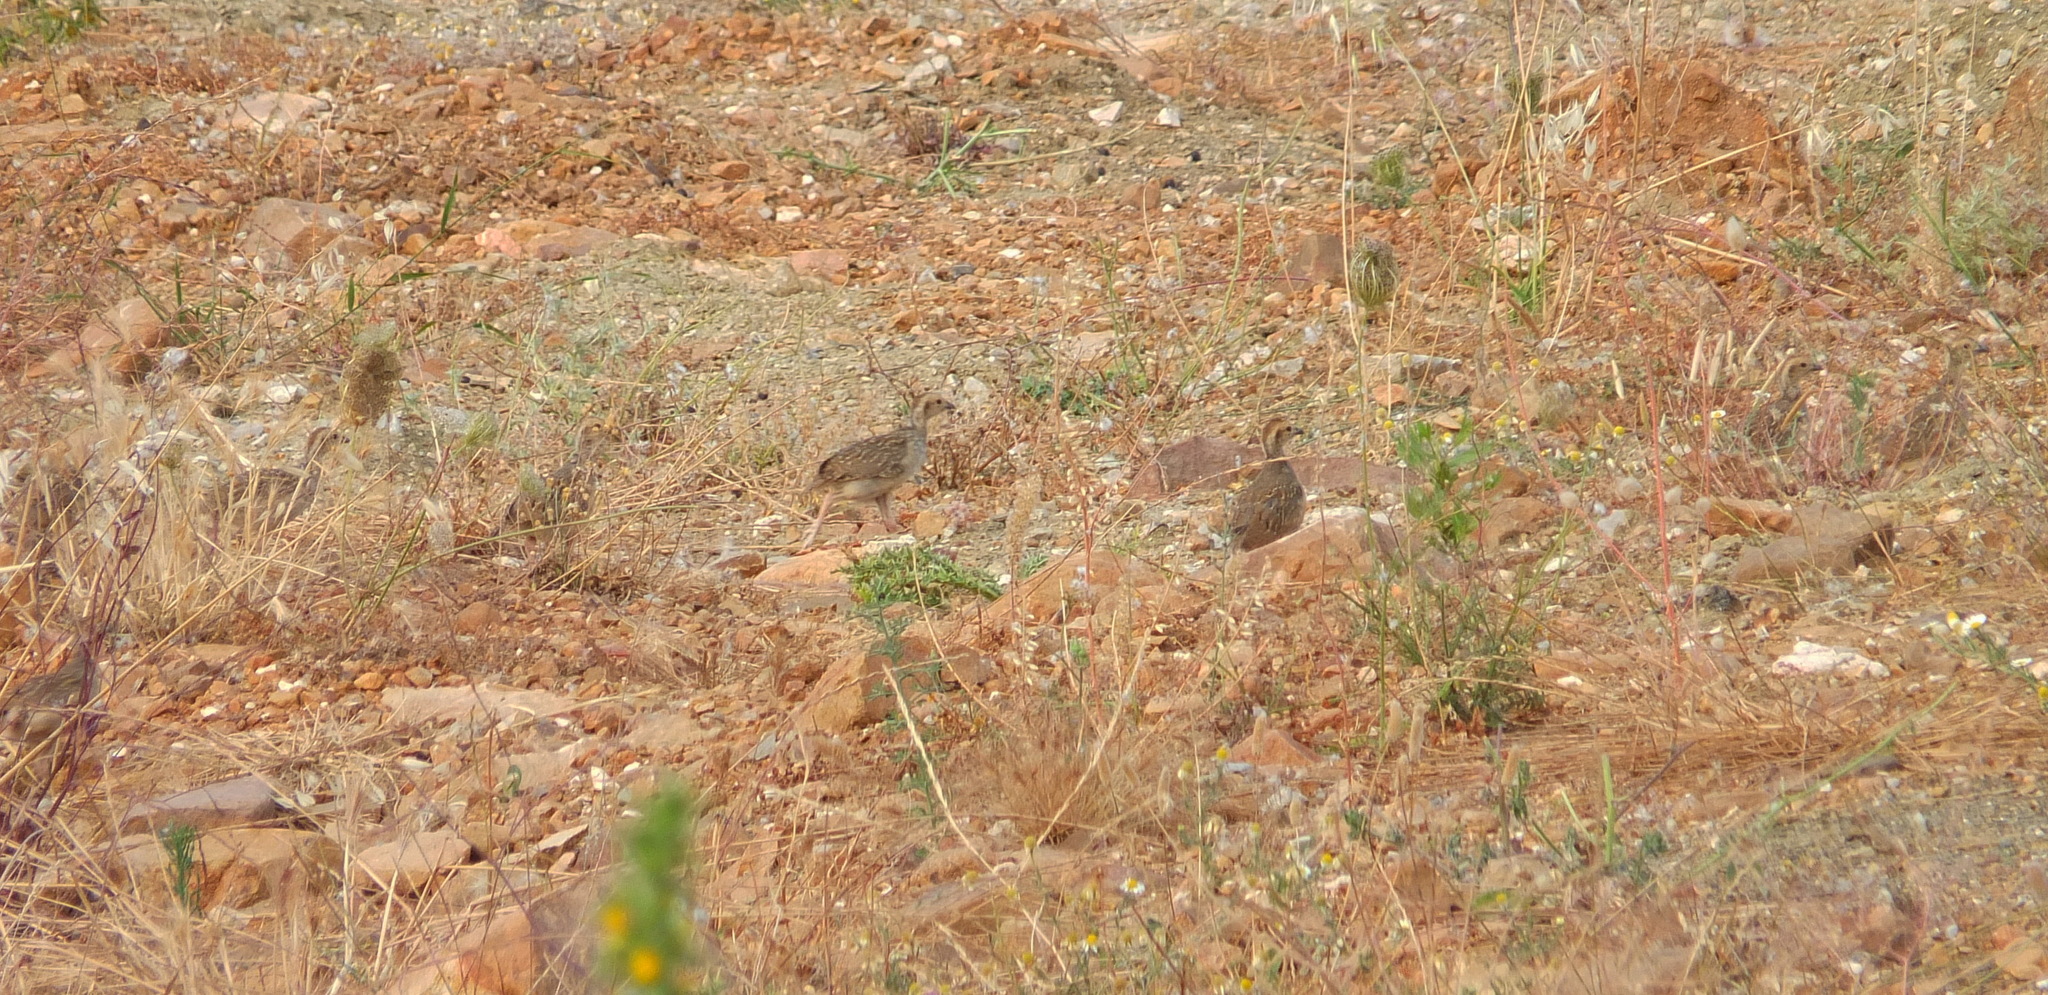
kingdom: Animalia
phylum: Chordata
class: Aves
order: Galliformes
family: Phasianidae
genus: Alectoris
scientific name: Alectoris barbara
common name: Barbary partridge
